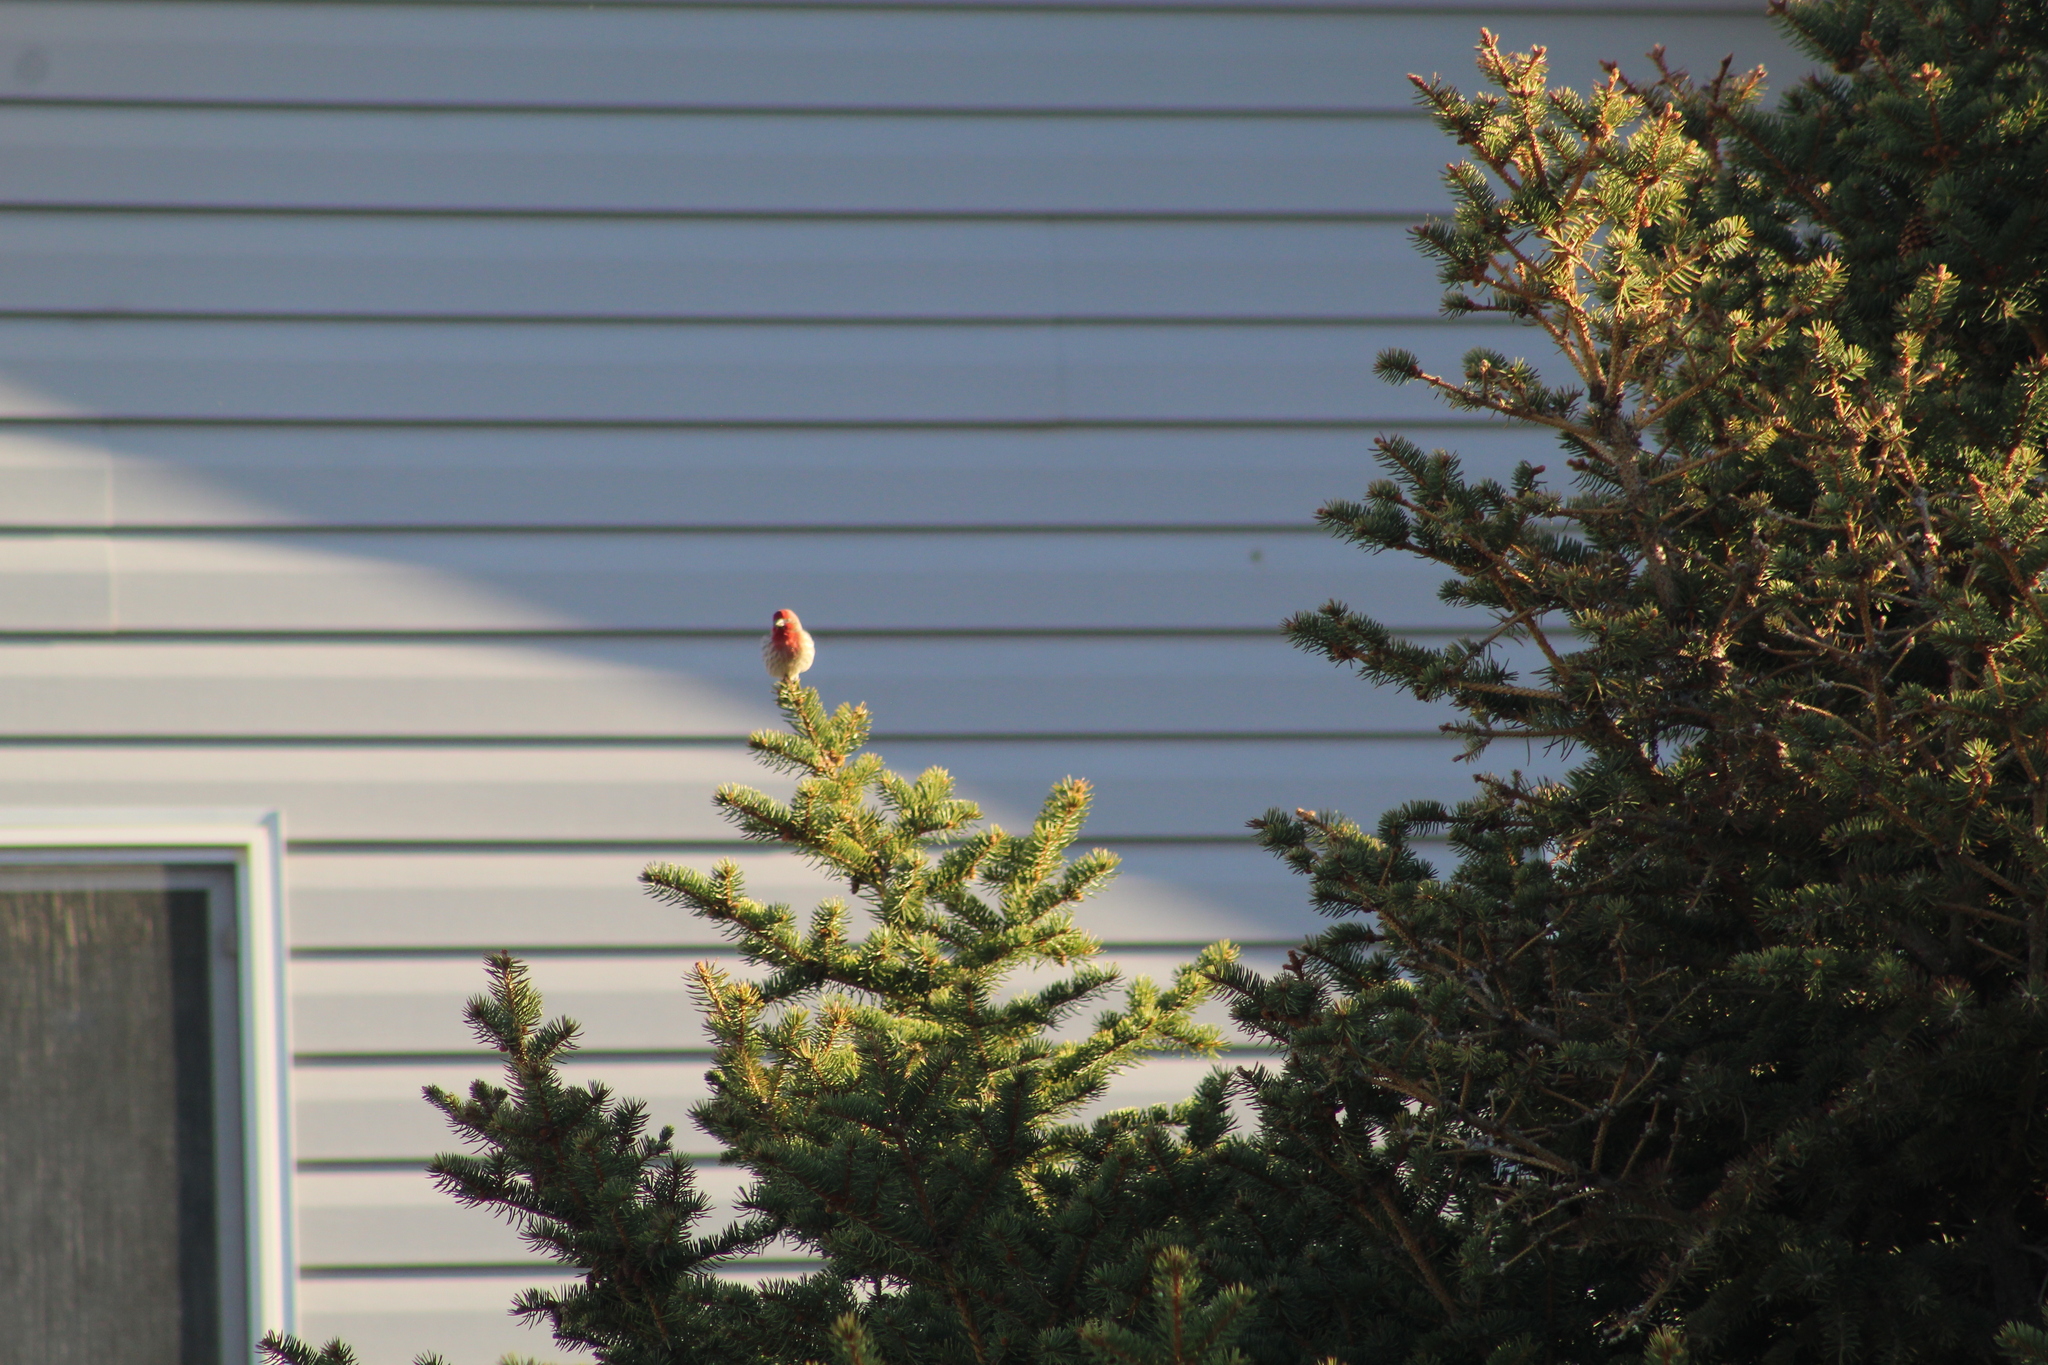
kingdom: Animalia
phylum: Chordata
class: Aves
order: Passeriformes
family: Fringillidae
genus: Haemorhous
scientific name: Haemorhous mexicanus
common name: House finch
